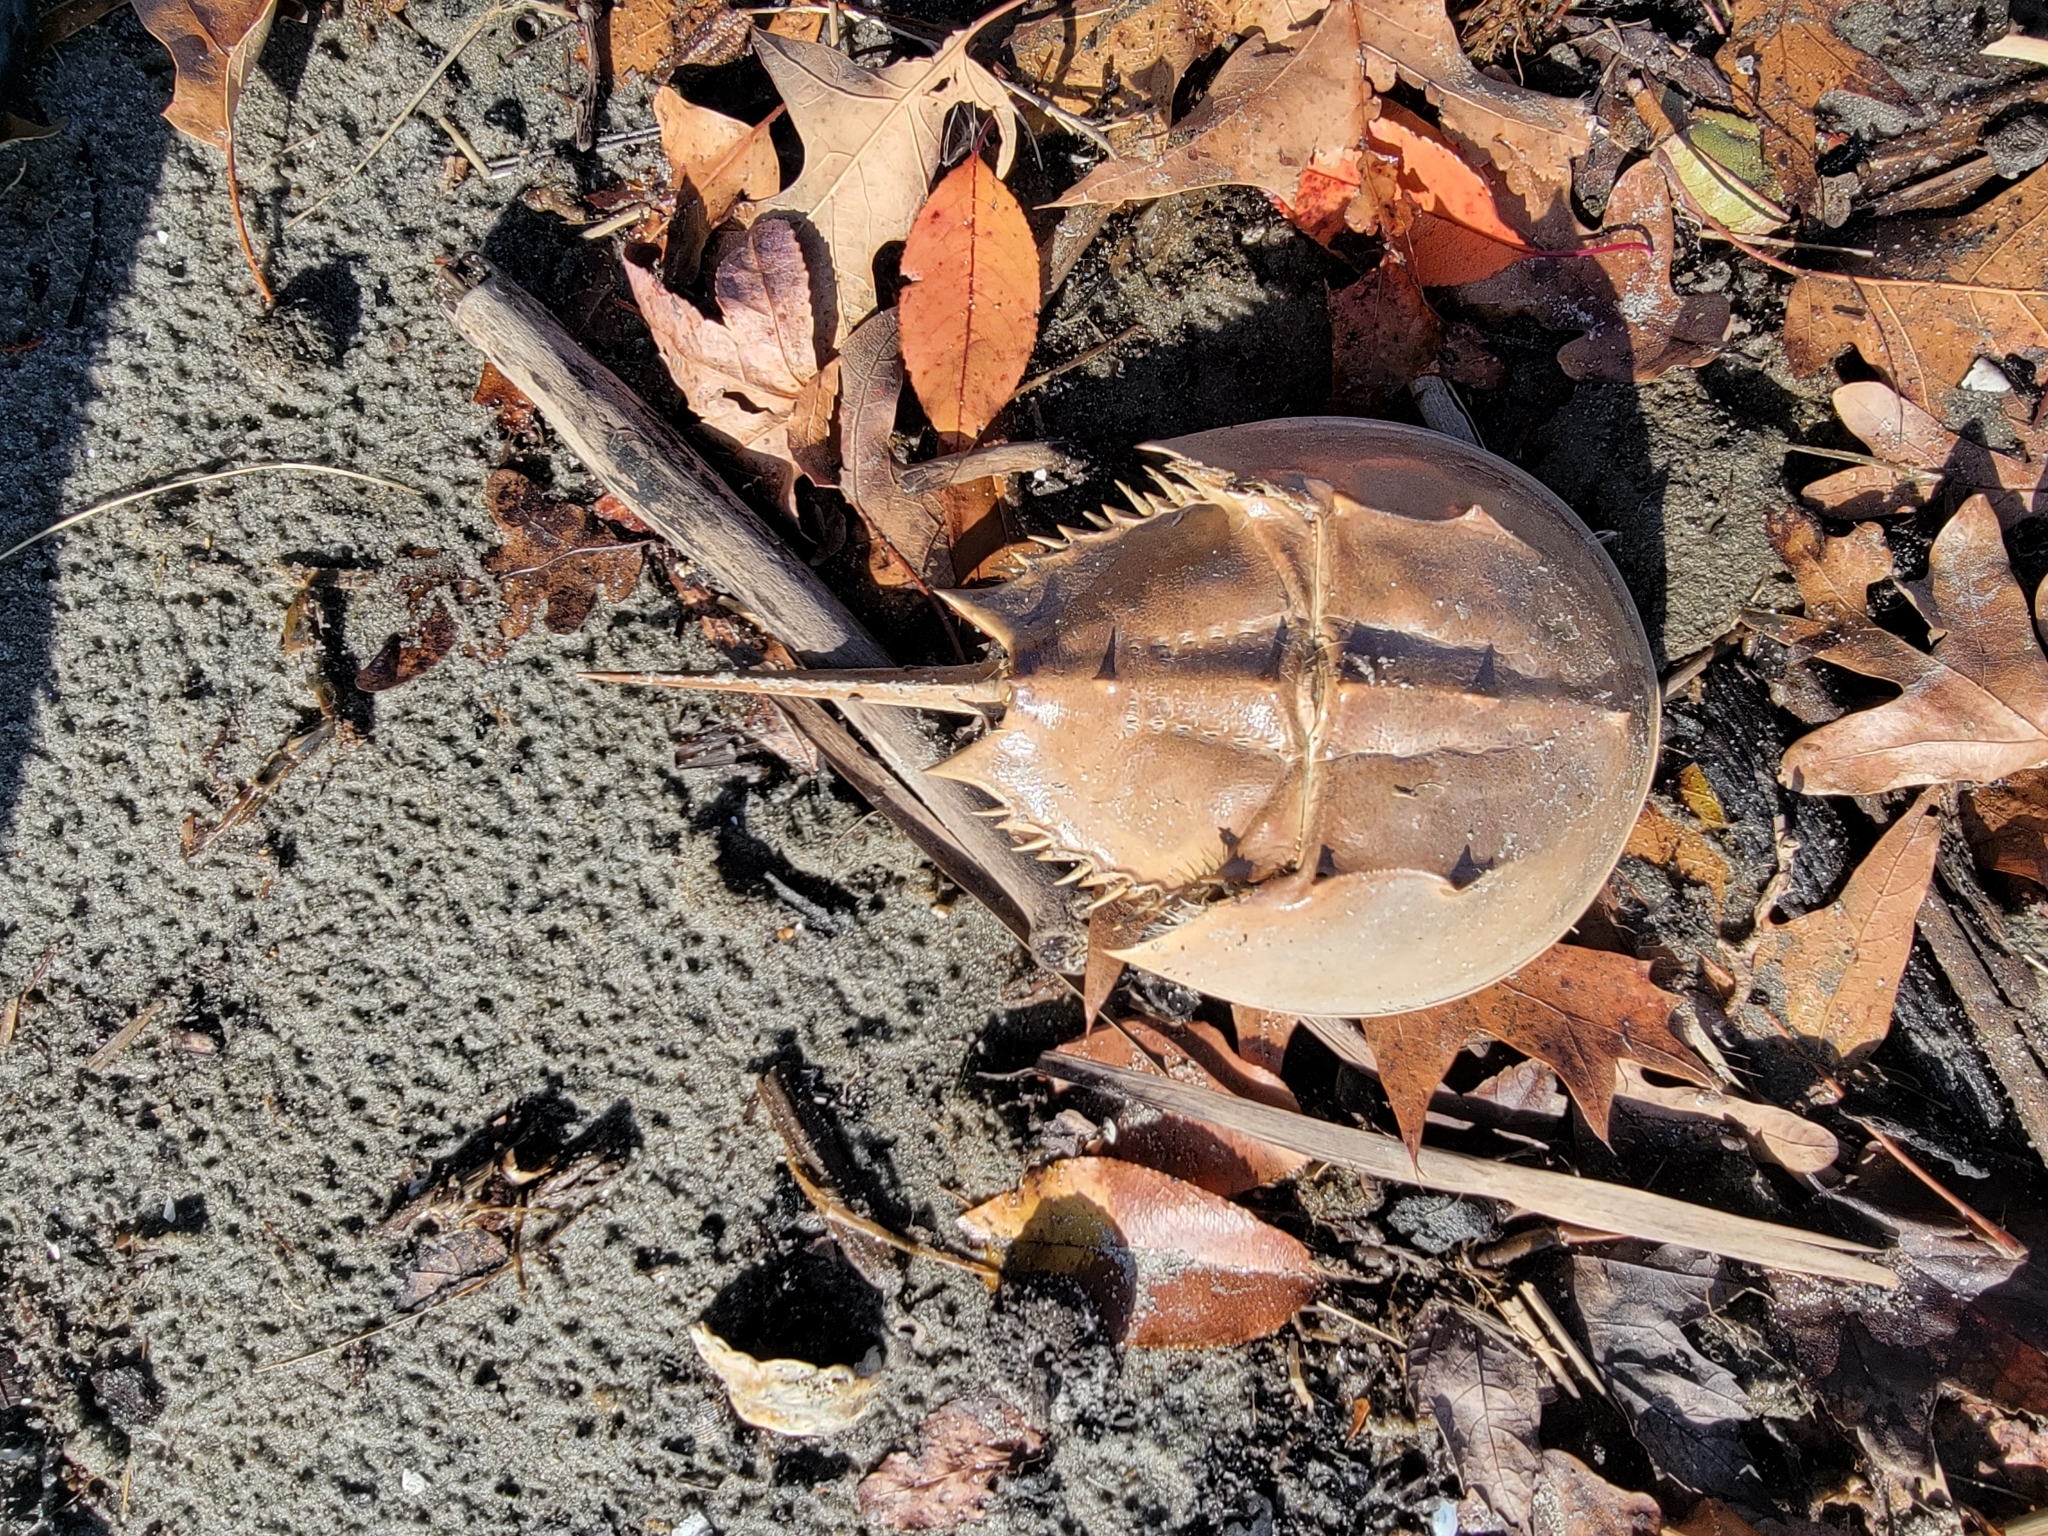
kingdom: Animalia
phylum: Arthropoda
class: Merostomata
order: Xiphosurida
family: Limulidae
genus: Limulus
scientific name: Limulus polyphemus
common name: Horseshoe crab
